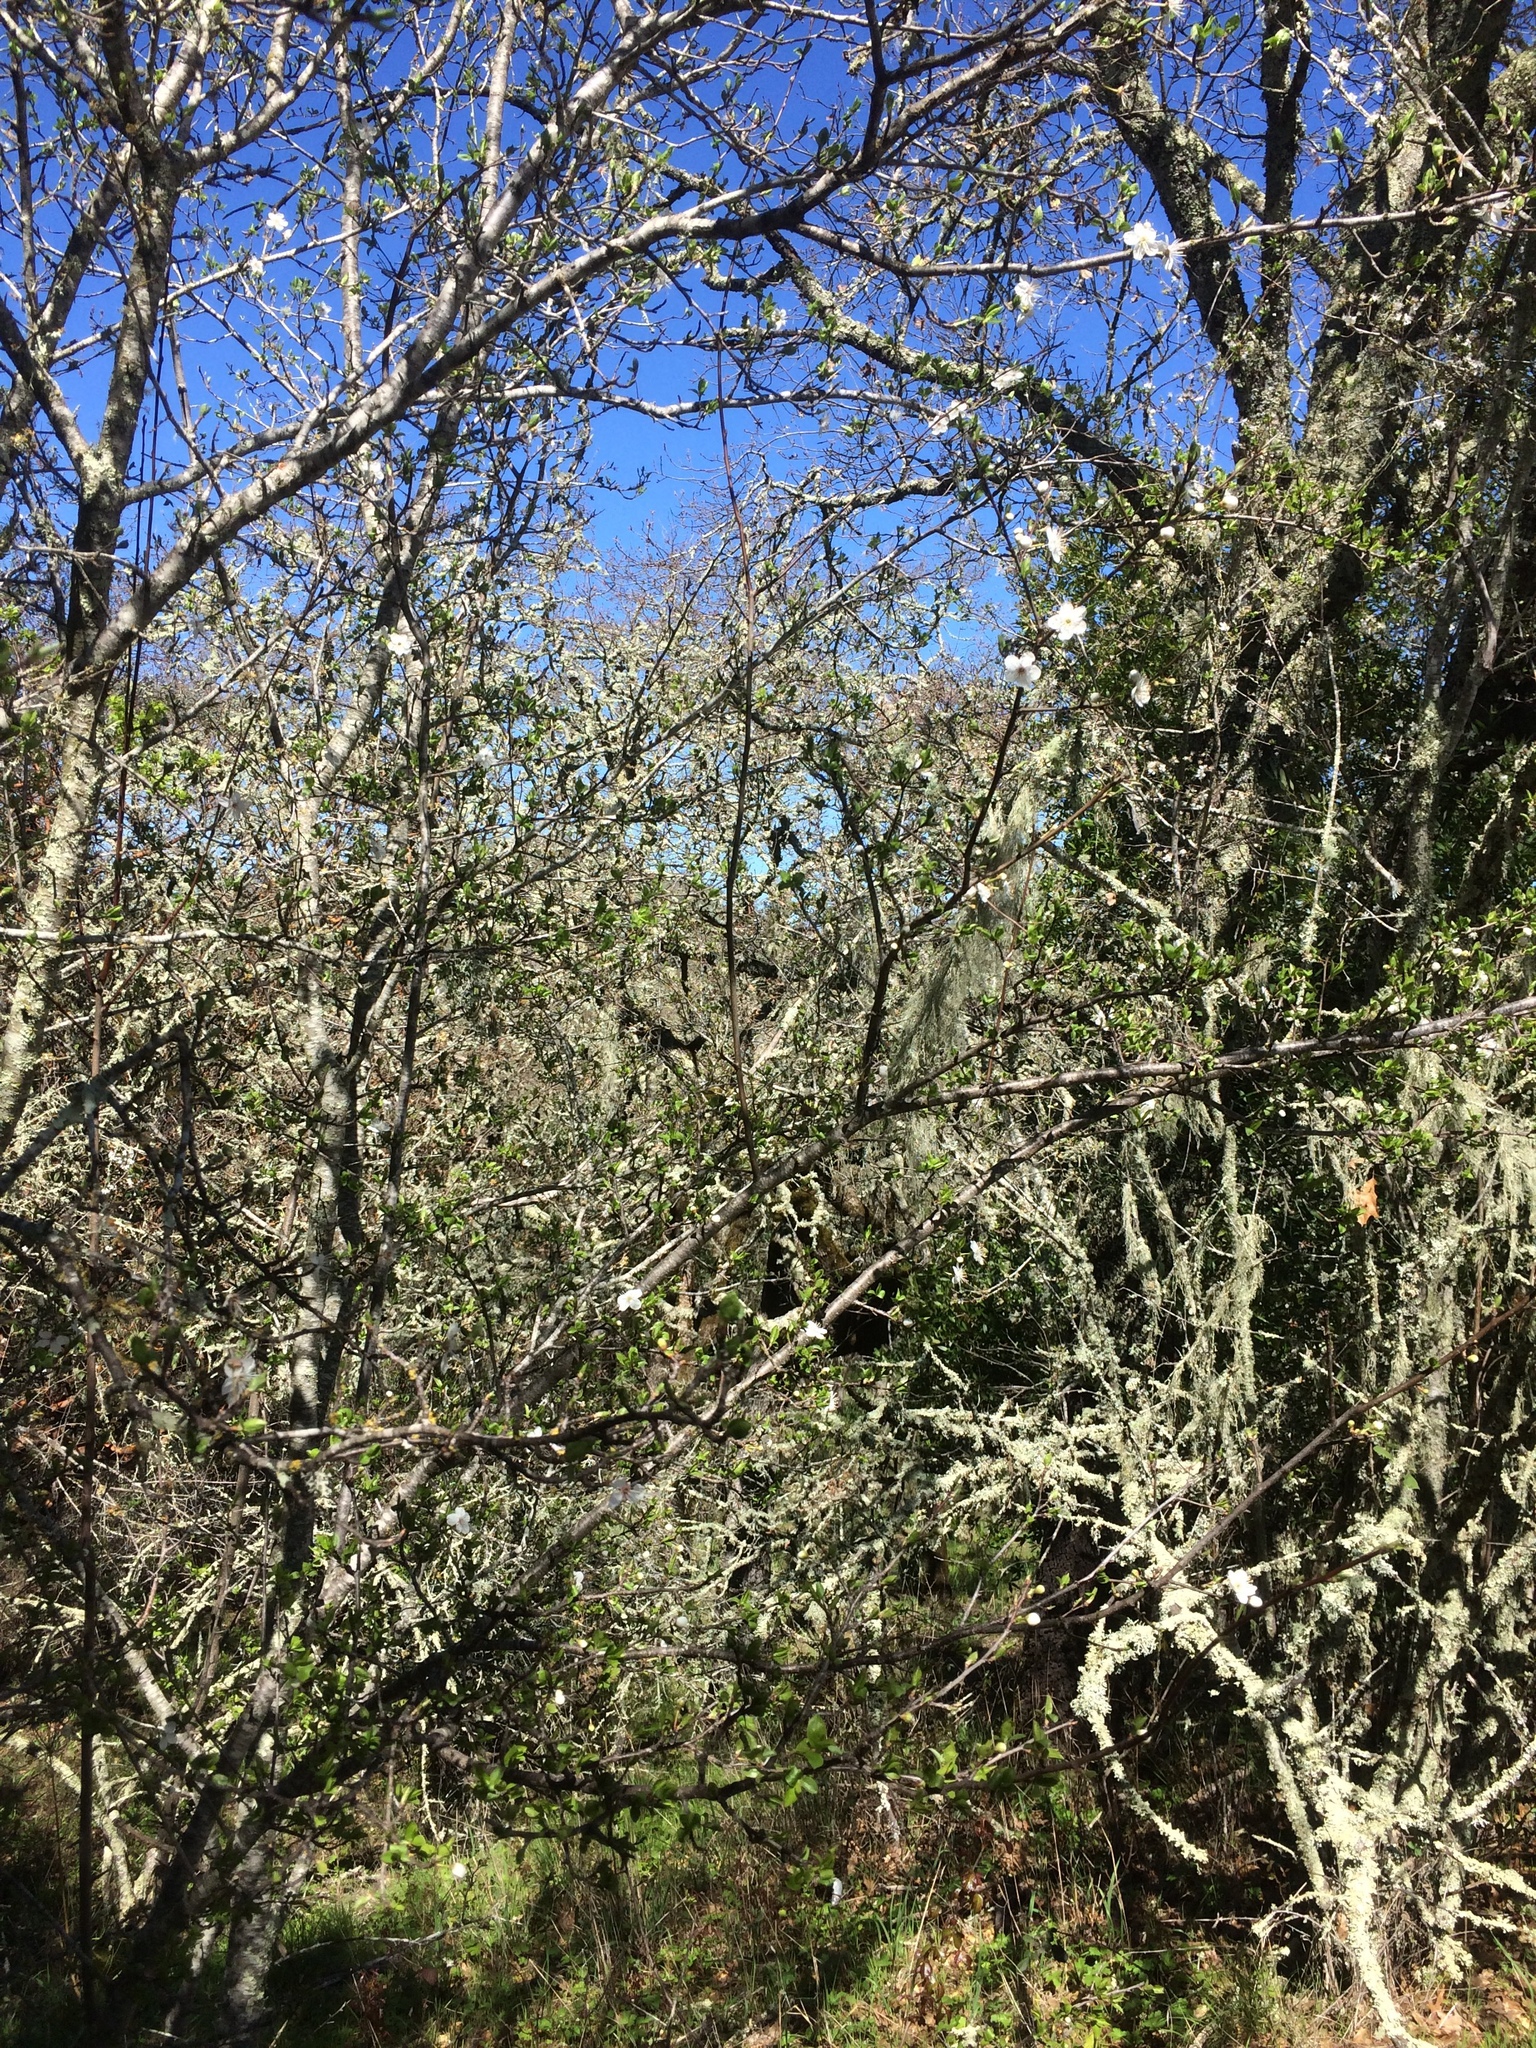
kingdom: Plantae
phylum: Tracheophyta
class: Magnoliopsida
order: Rosales
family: Rosaceae
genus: Prunus
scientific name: Prunus cerasifera
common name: Cherry plum
